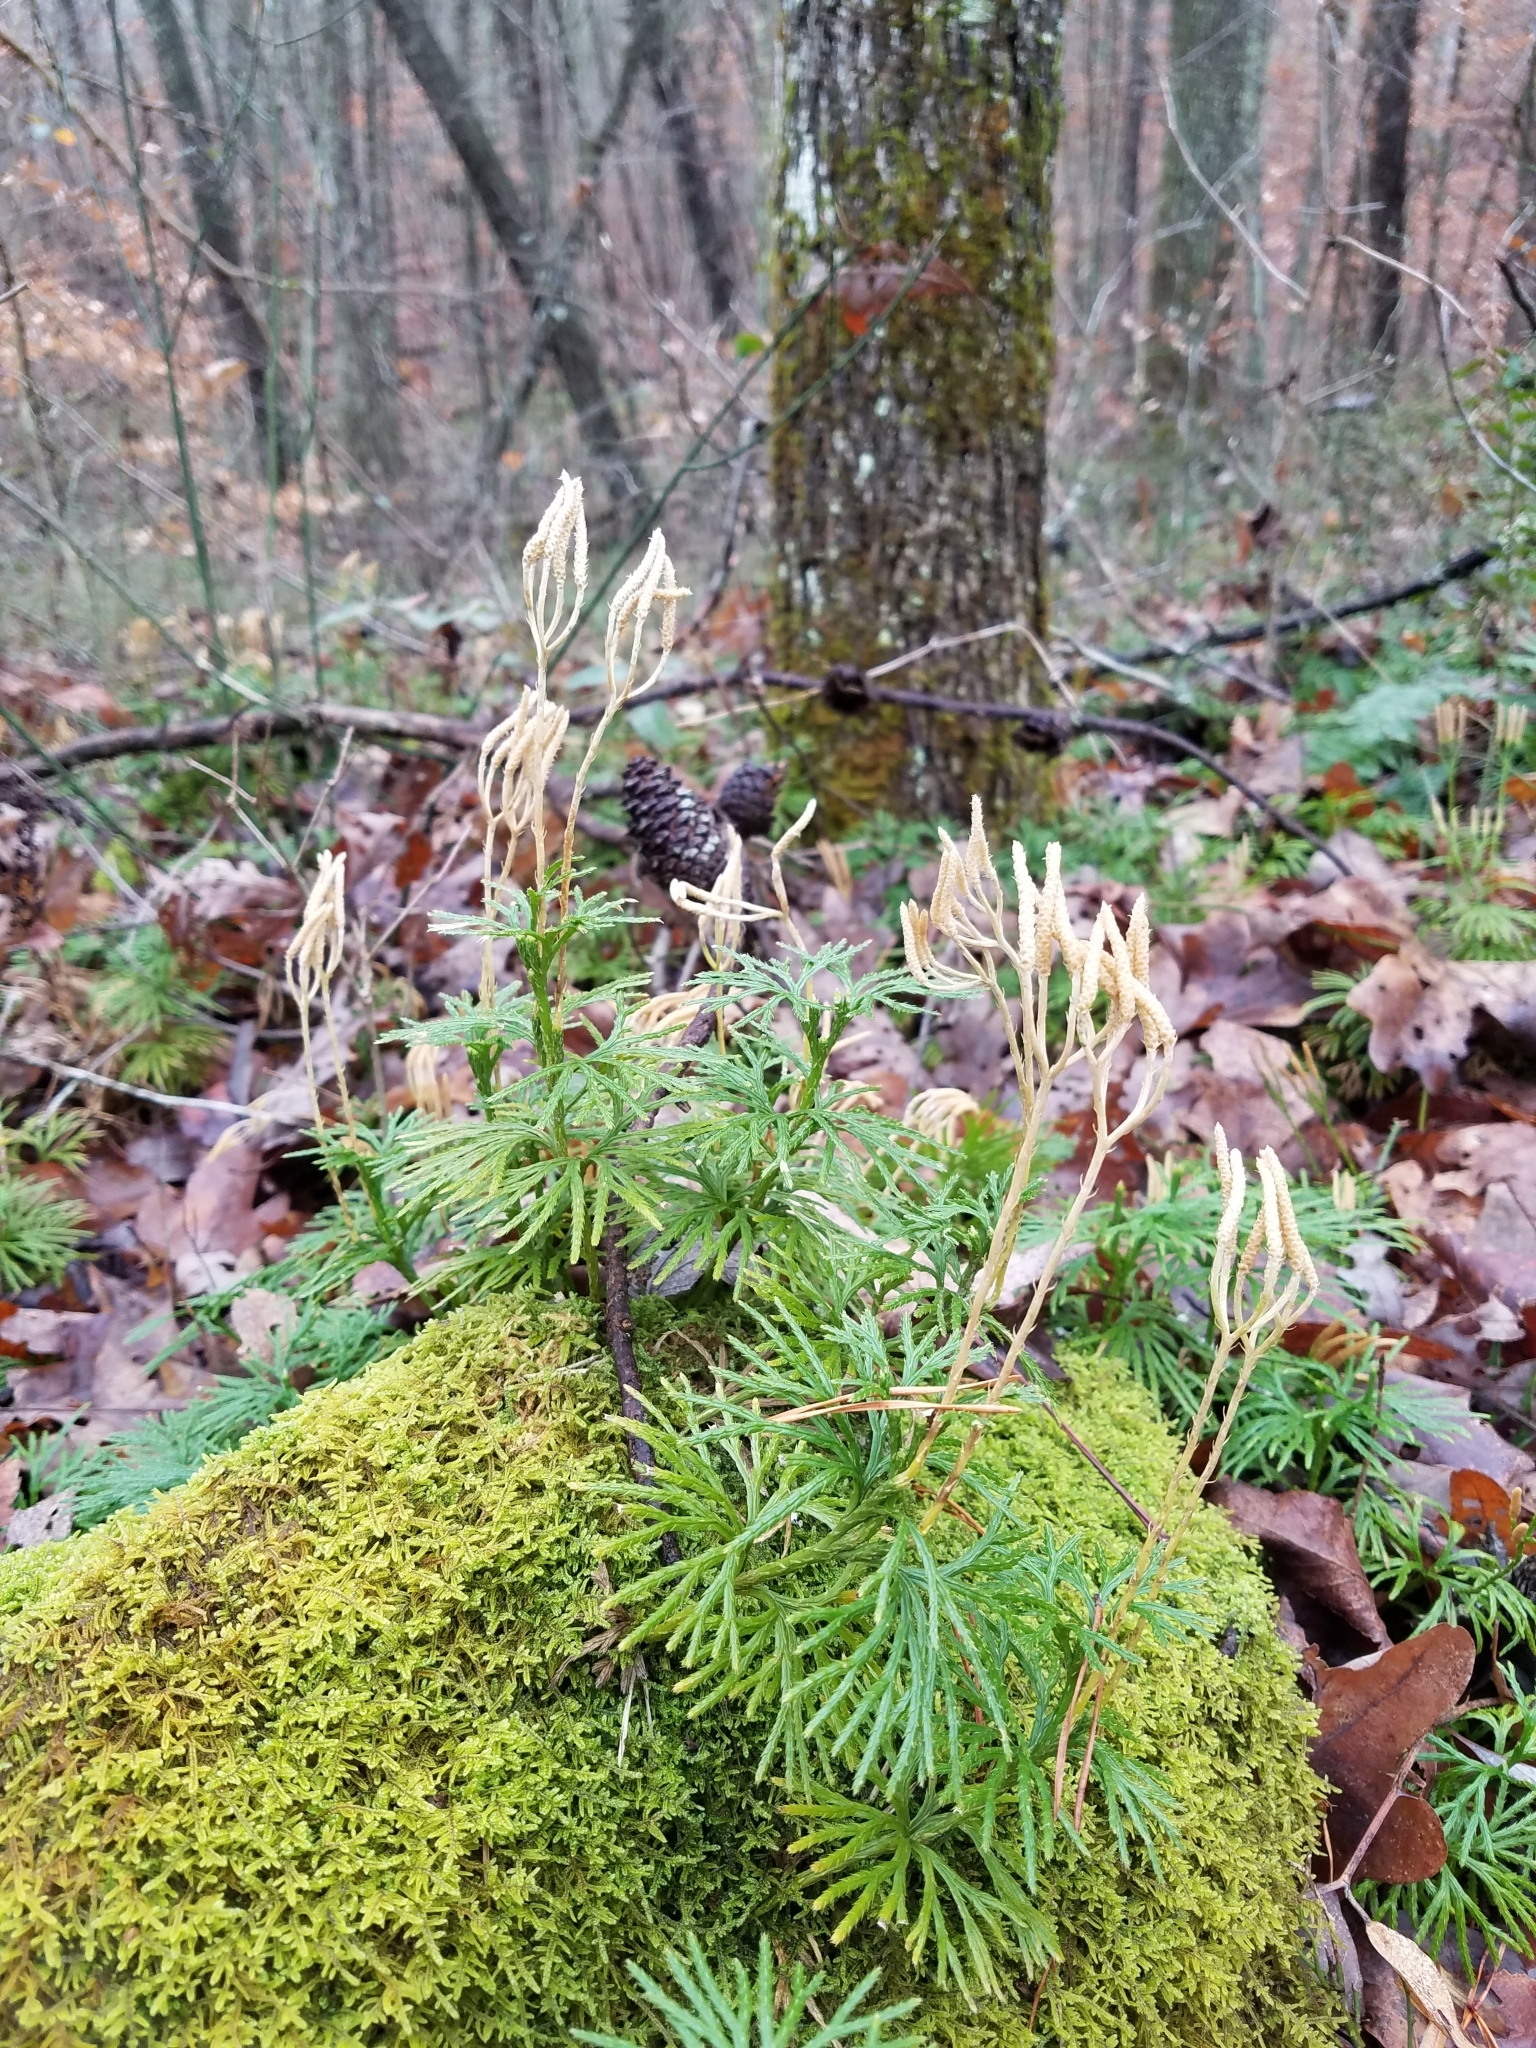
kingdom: Plantae
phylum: Tracheophyta
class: Lycopodiopsida
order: Lycopodiales
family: Lycopodiaceae
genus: Diphasiastrum
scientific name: Diphasiastrum digitatum
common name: Southern running-pine
